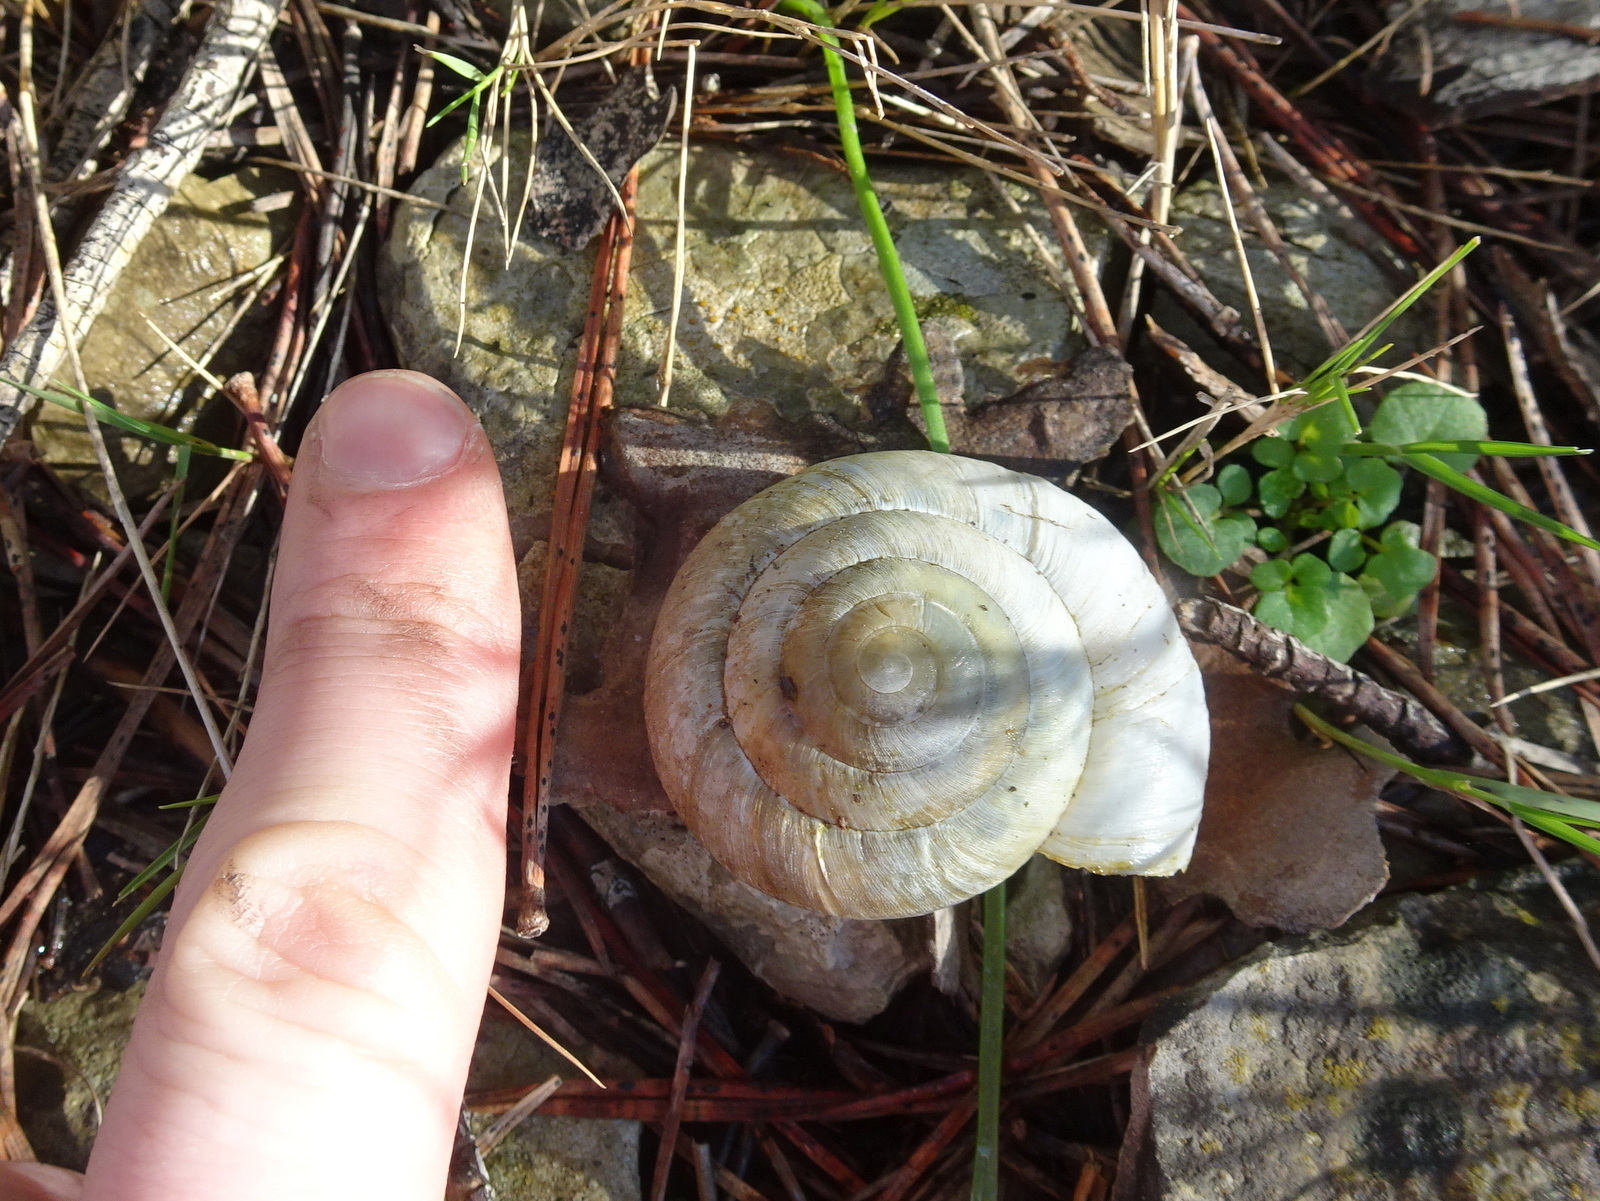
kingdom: Animalia
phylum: Mollusca
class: Gastropoda
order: Stylommatophora
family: Zonitidae
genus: Zonites
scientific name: Zonites algirus
